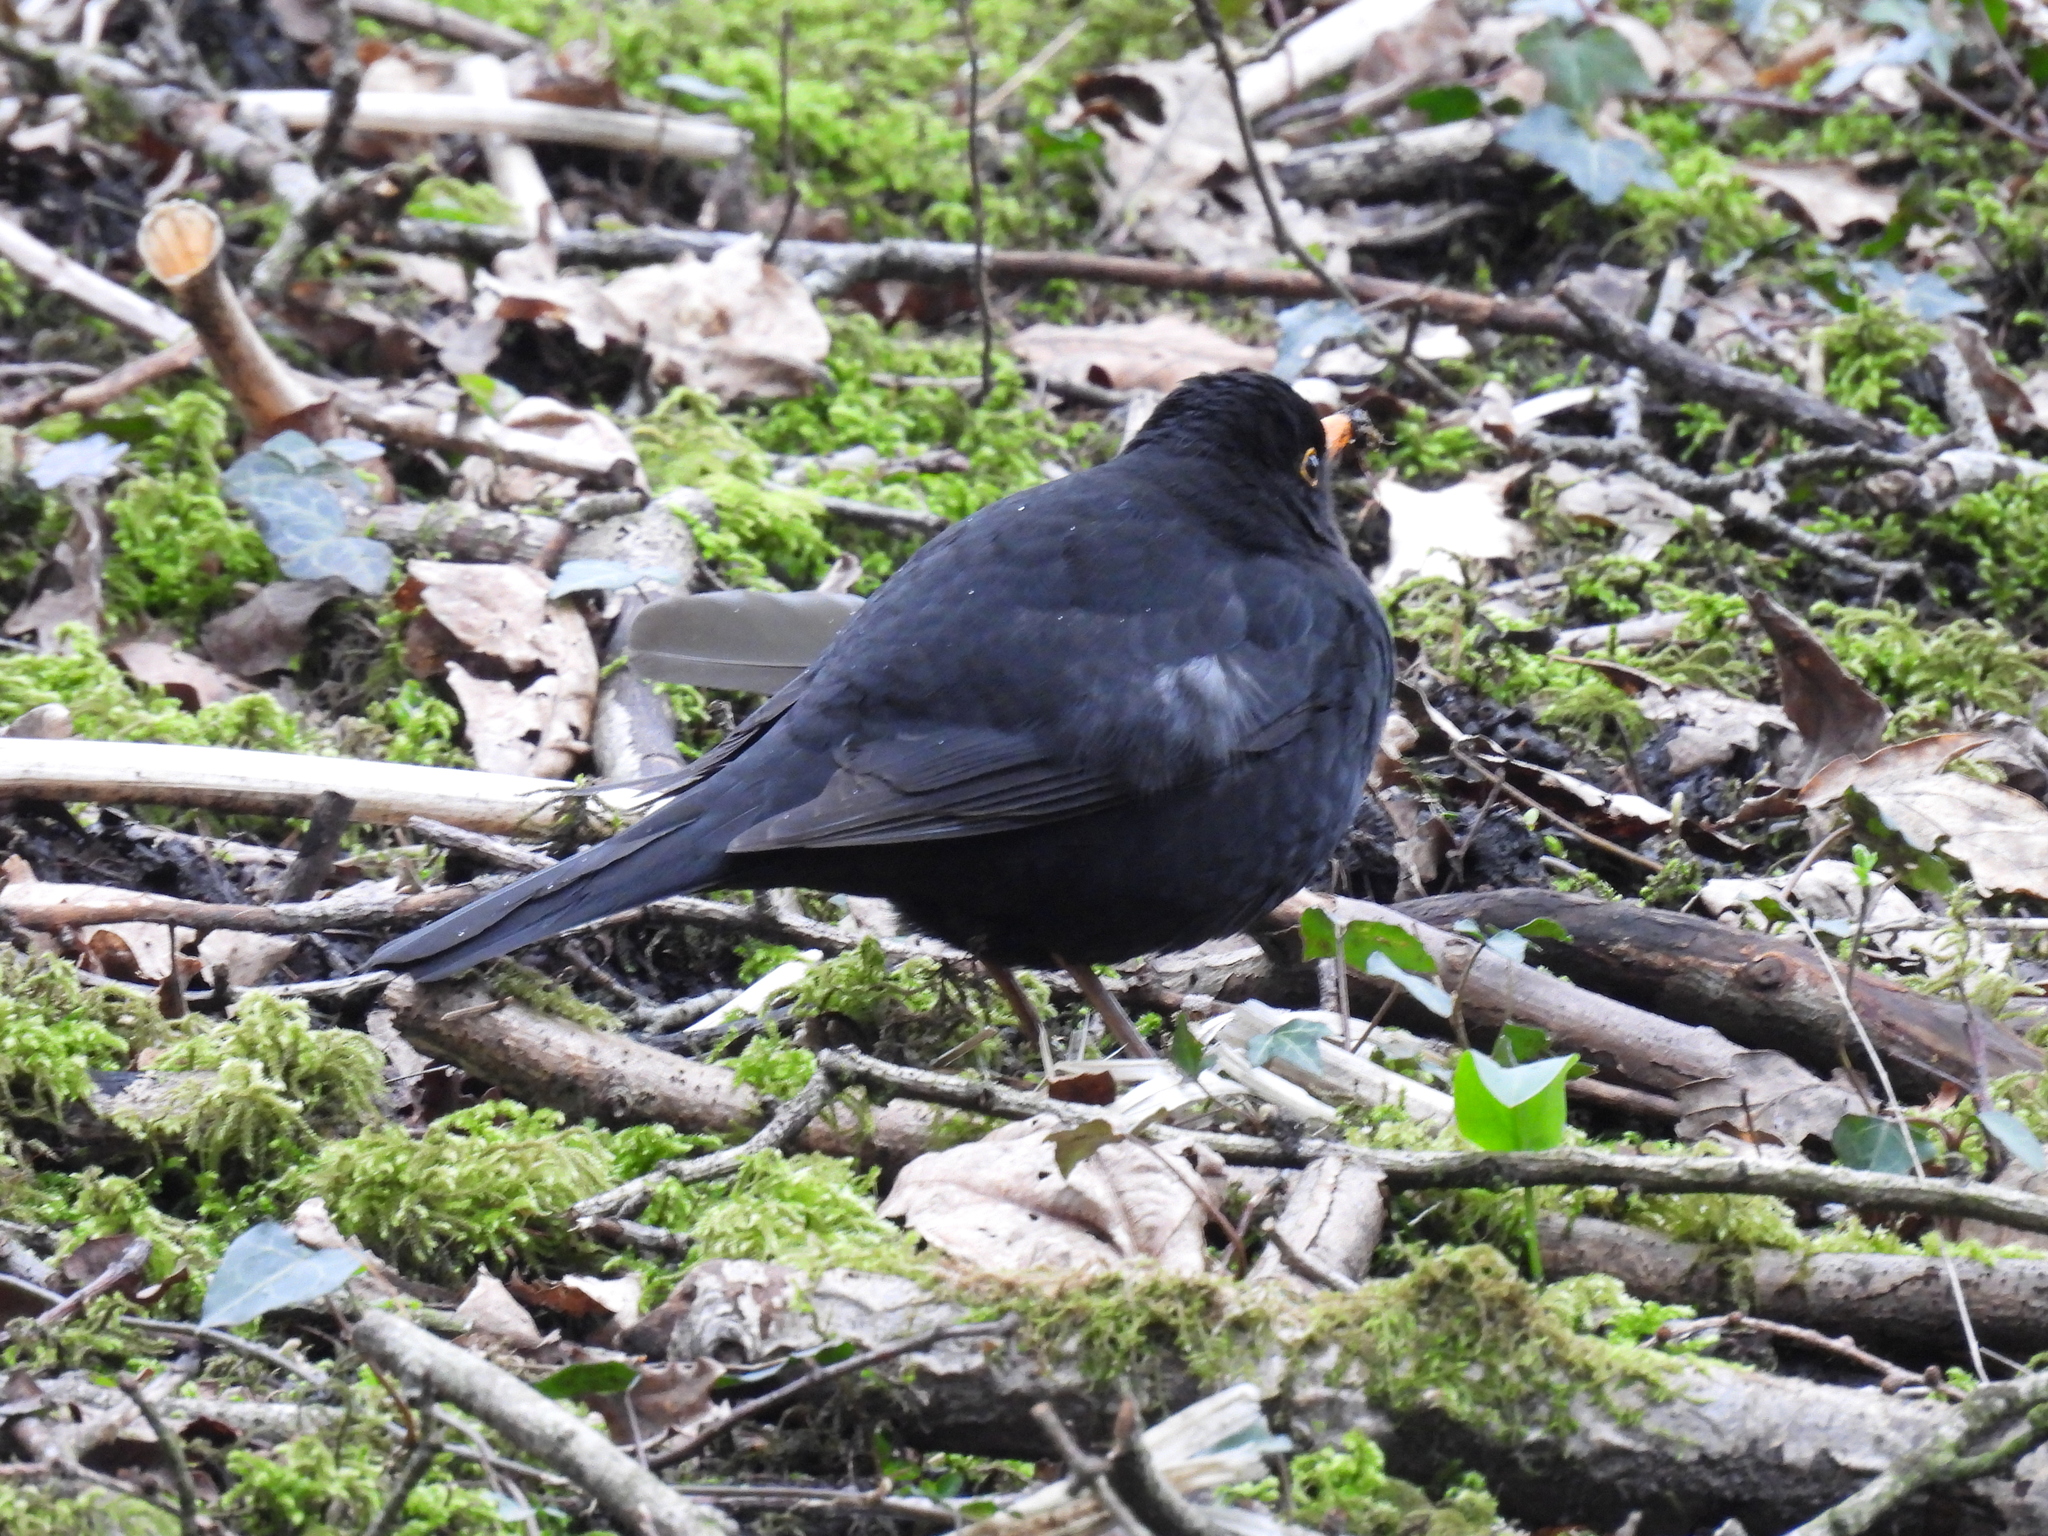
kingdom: Animalia
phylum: Chordata
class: Aves
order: Passeriformes
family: Turdidae
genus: Turdus
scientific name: Turdus merula
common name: Common blackbird
